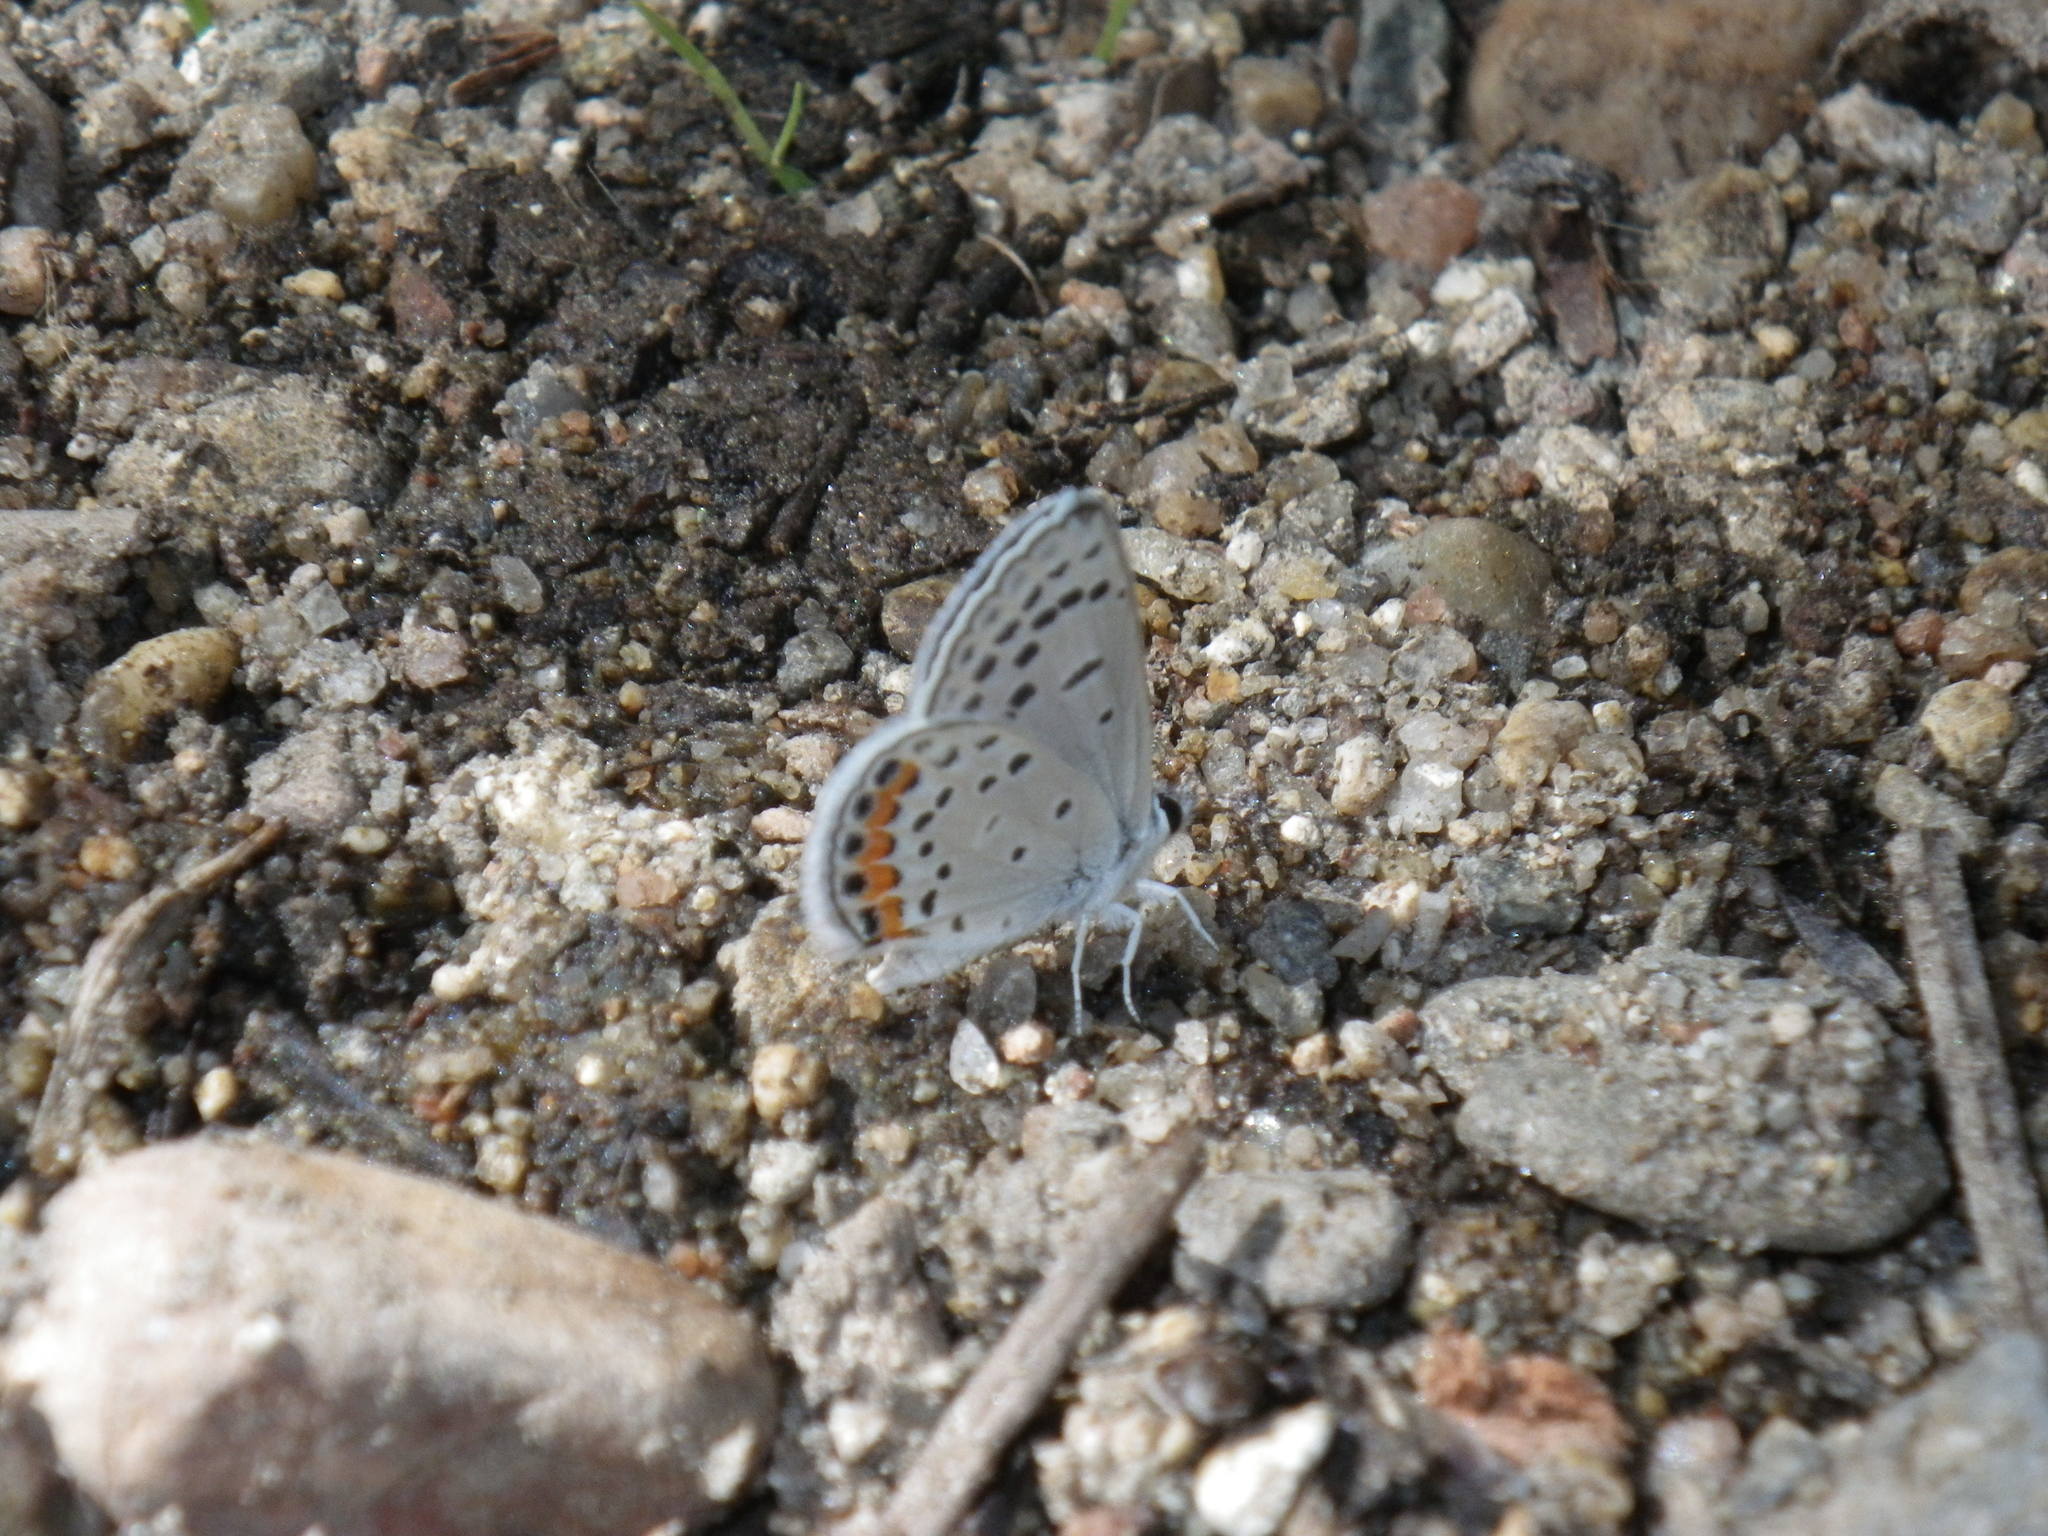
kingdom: Animalia
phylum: Arthropoda
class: Insecta
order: Lepidoptera
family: Lycaenidae
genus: Icaricia
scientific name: Icaricia acmon
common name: Acmon blue
